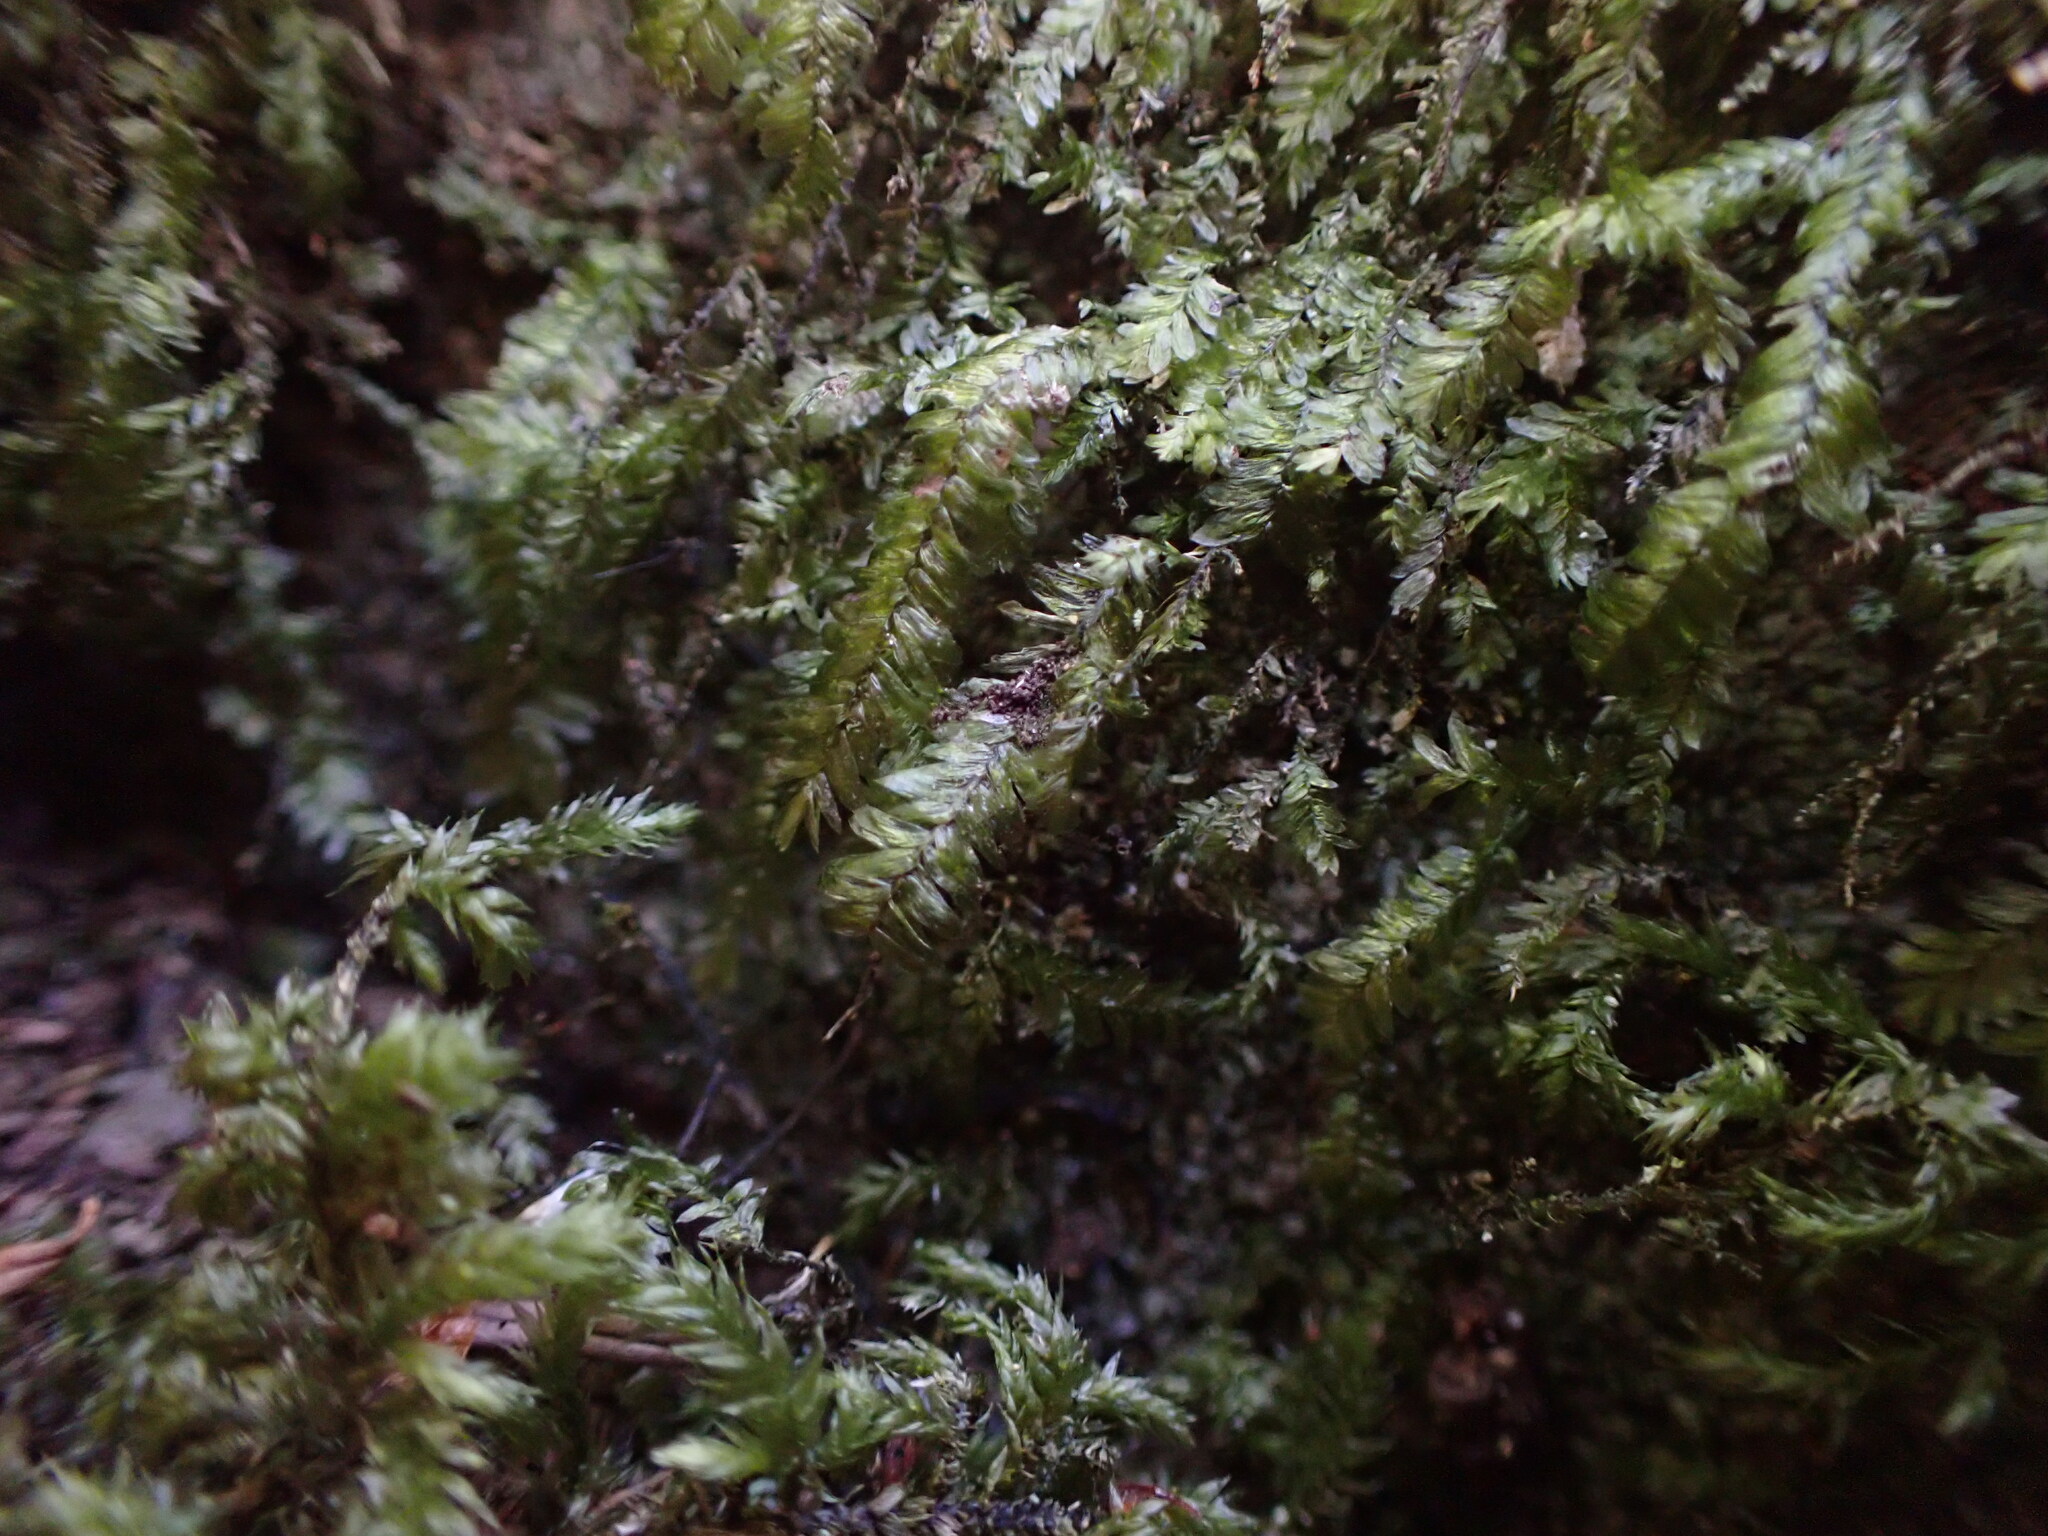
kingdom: Plantae
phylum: Bryophyta
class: Bryopsida
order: Hypnales
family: Neckeraceae
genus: Dannorrisia
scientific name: Dannorrisia bigelovii
